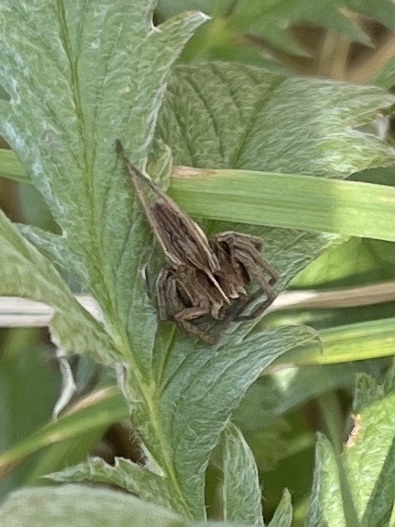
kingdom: Animalia
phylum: Arthropoda
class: Arachnida
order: Araneae
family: Pisauridae
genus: Pisaura
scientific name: Pisaura mirabilis
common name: Tent spider
